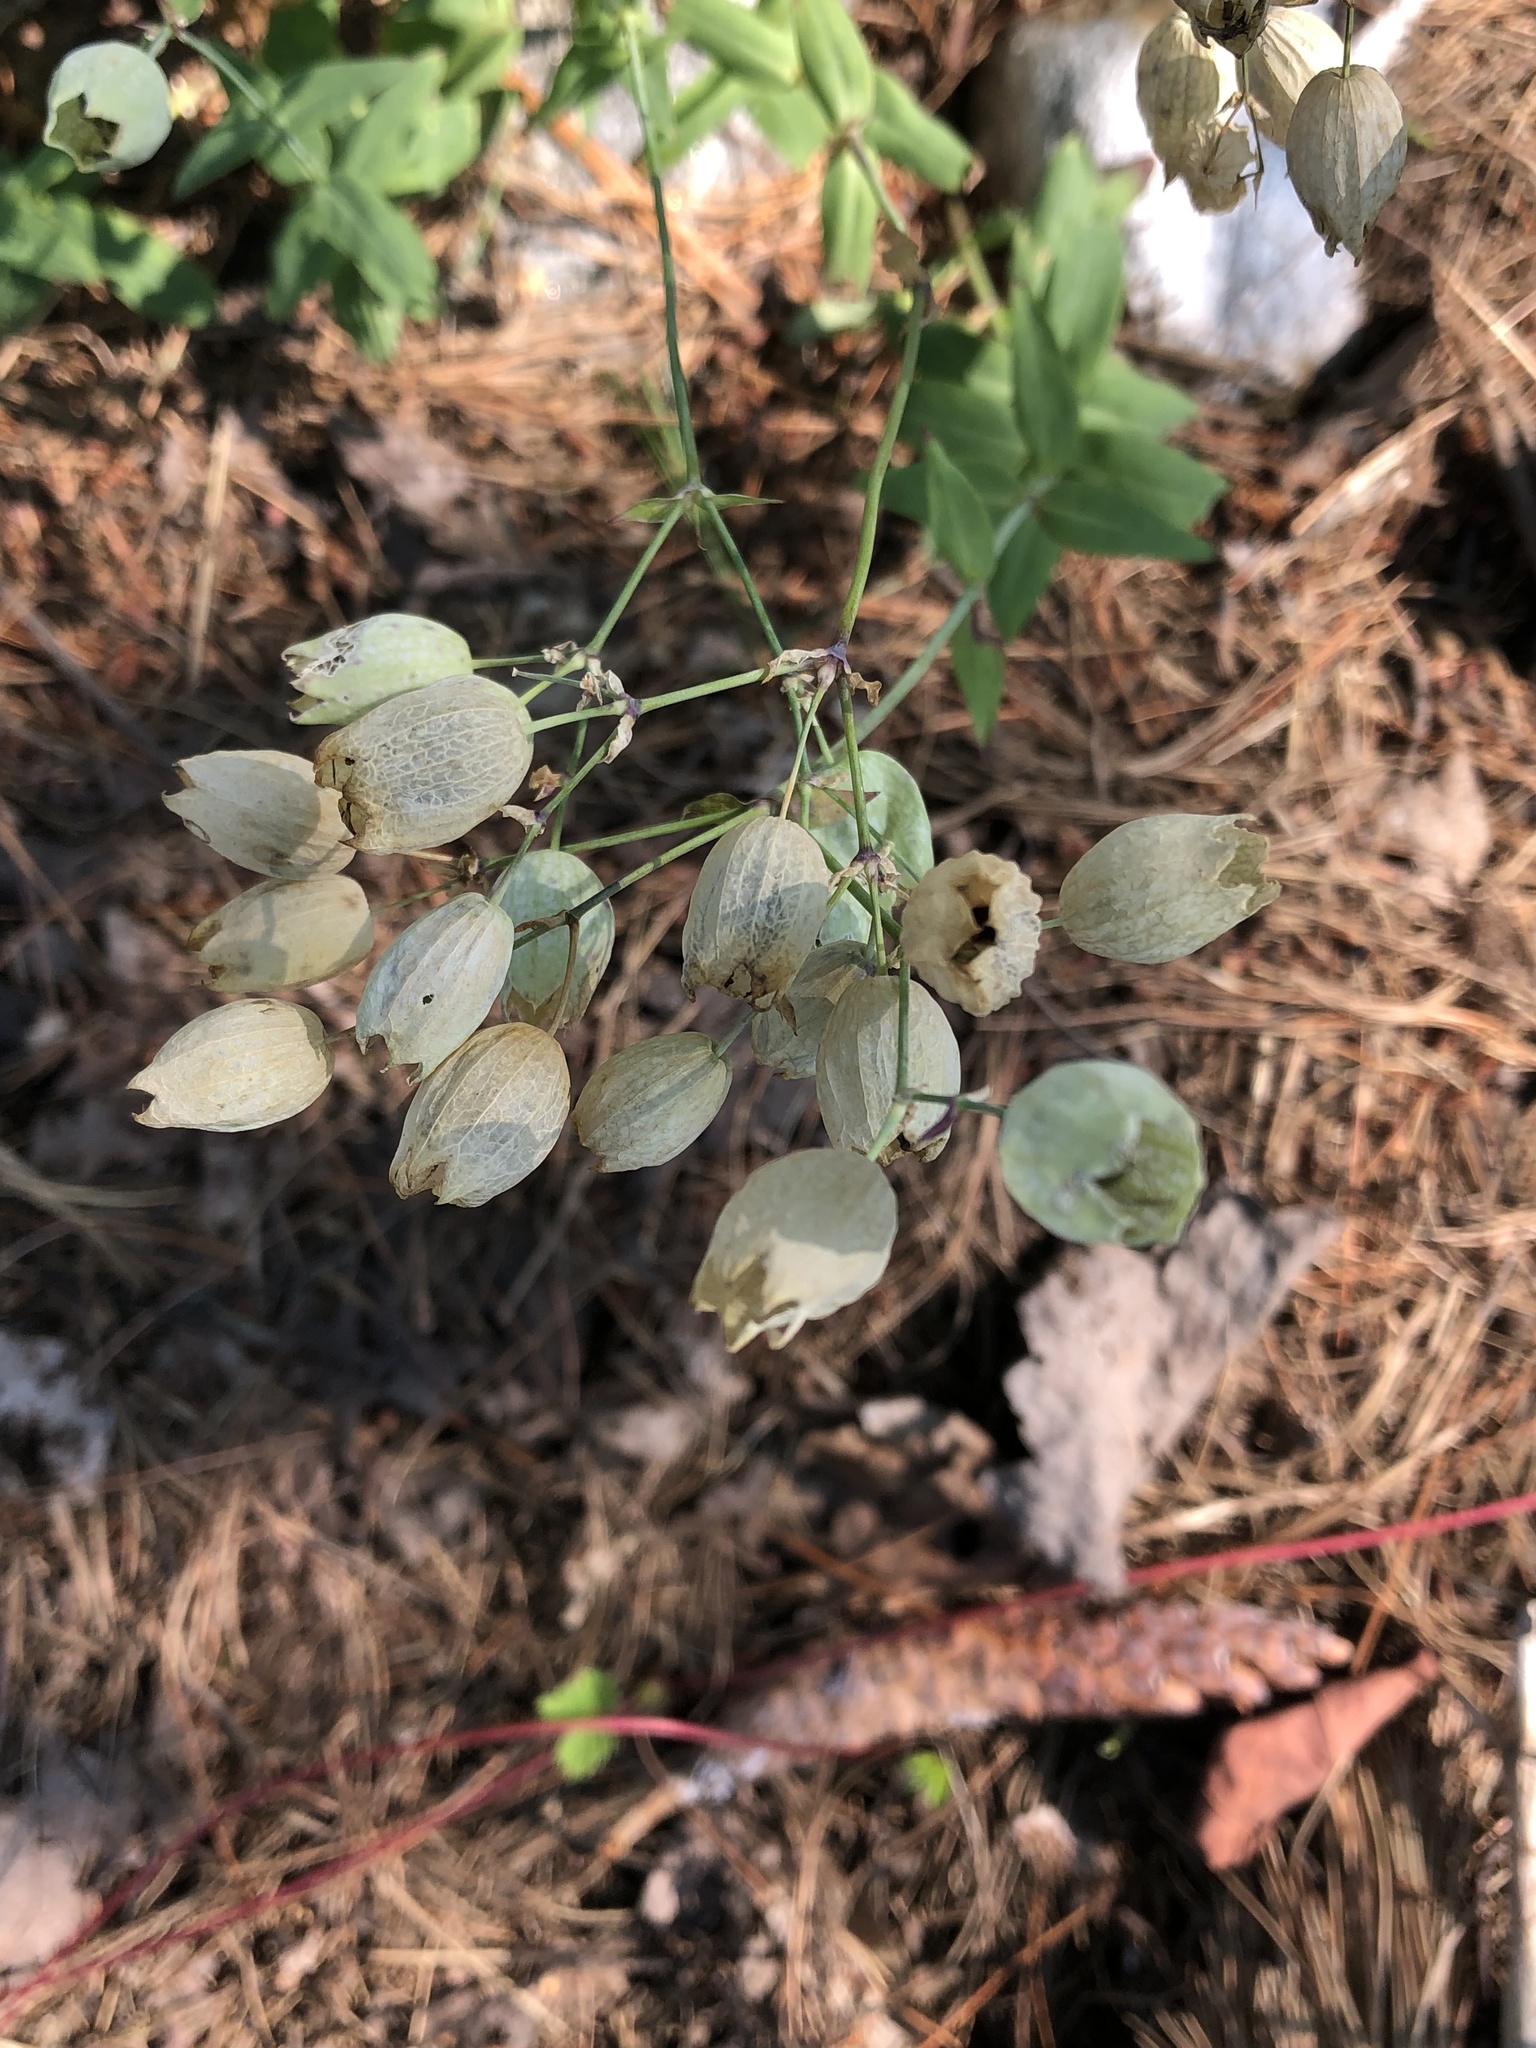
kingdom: Plantae
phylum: Tracheophyta
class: Magnoliopsida
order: Caryophyllales
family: Caryophyllaceae
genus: Silene
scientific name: Silene vulgaris
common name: Bladder campion
